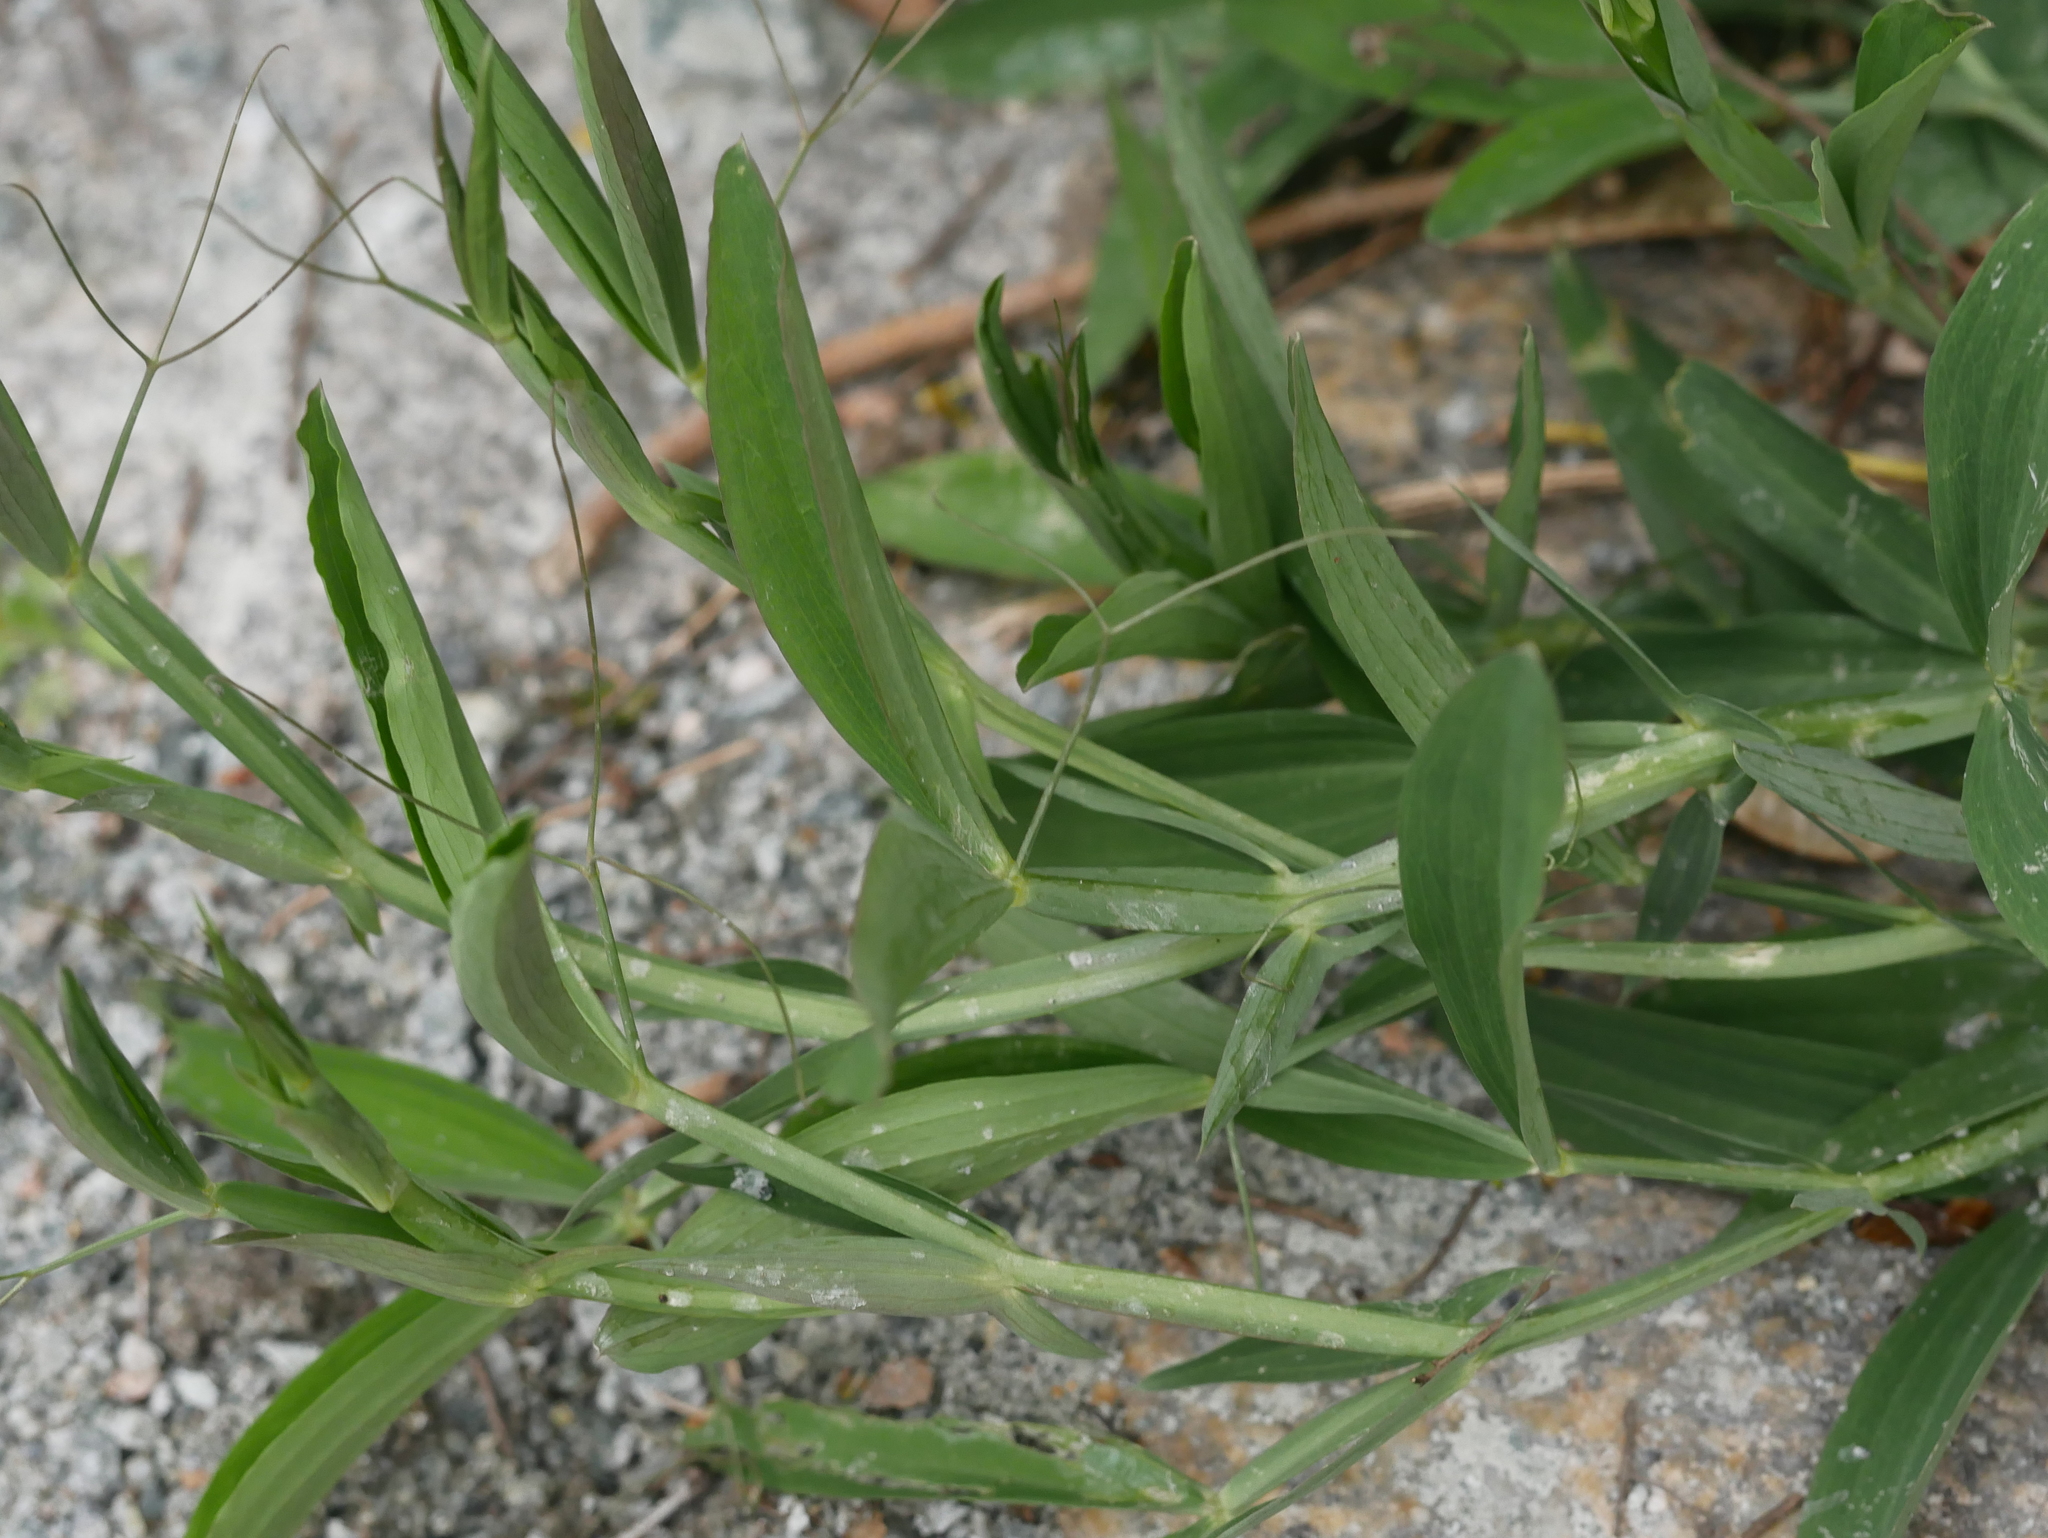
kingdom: Plantae
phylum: Tracheophyta
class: Magnoliopsida
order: Fabales
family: Fabaceae
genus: Lathyrus
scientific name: Lathyrus latifolius
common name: Perennial pea
